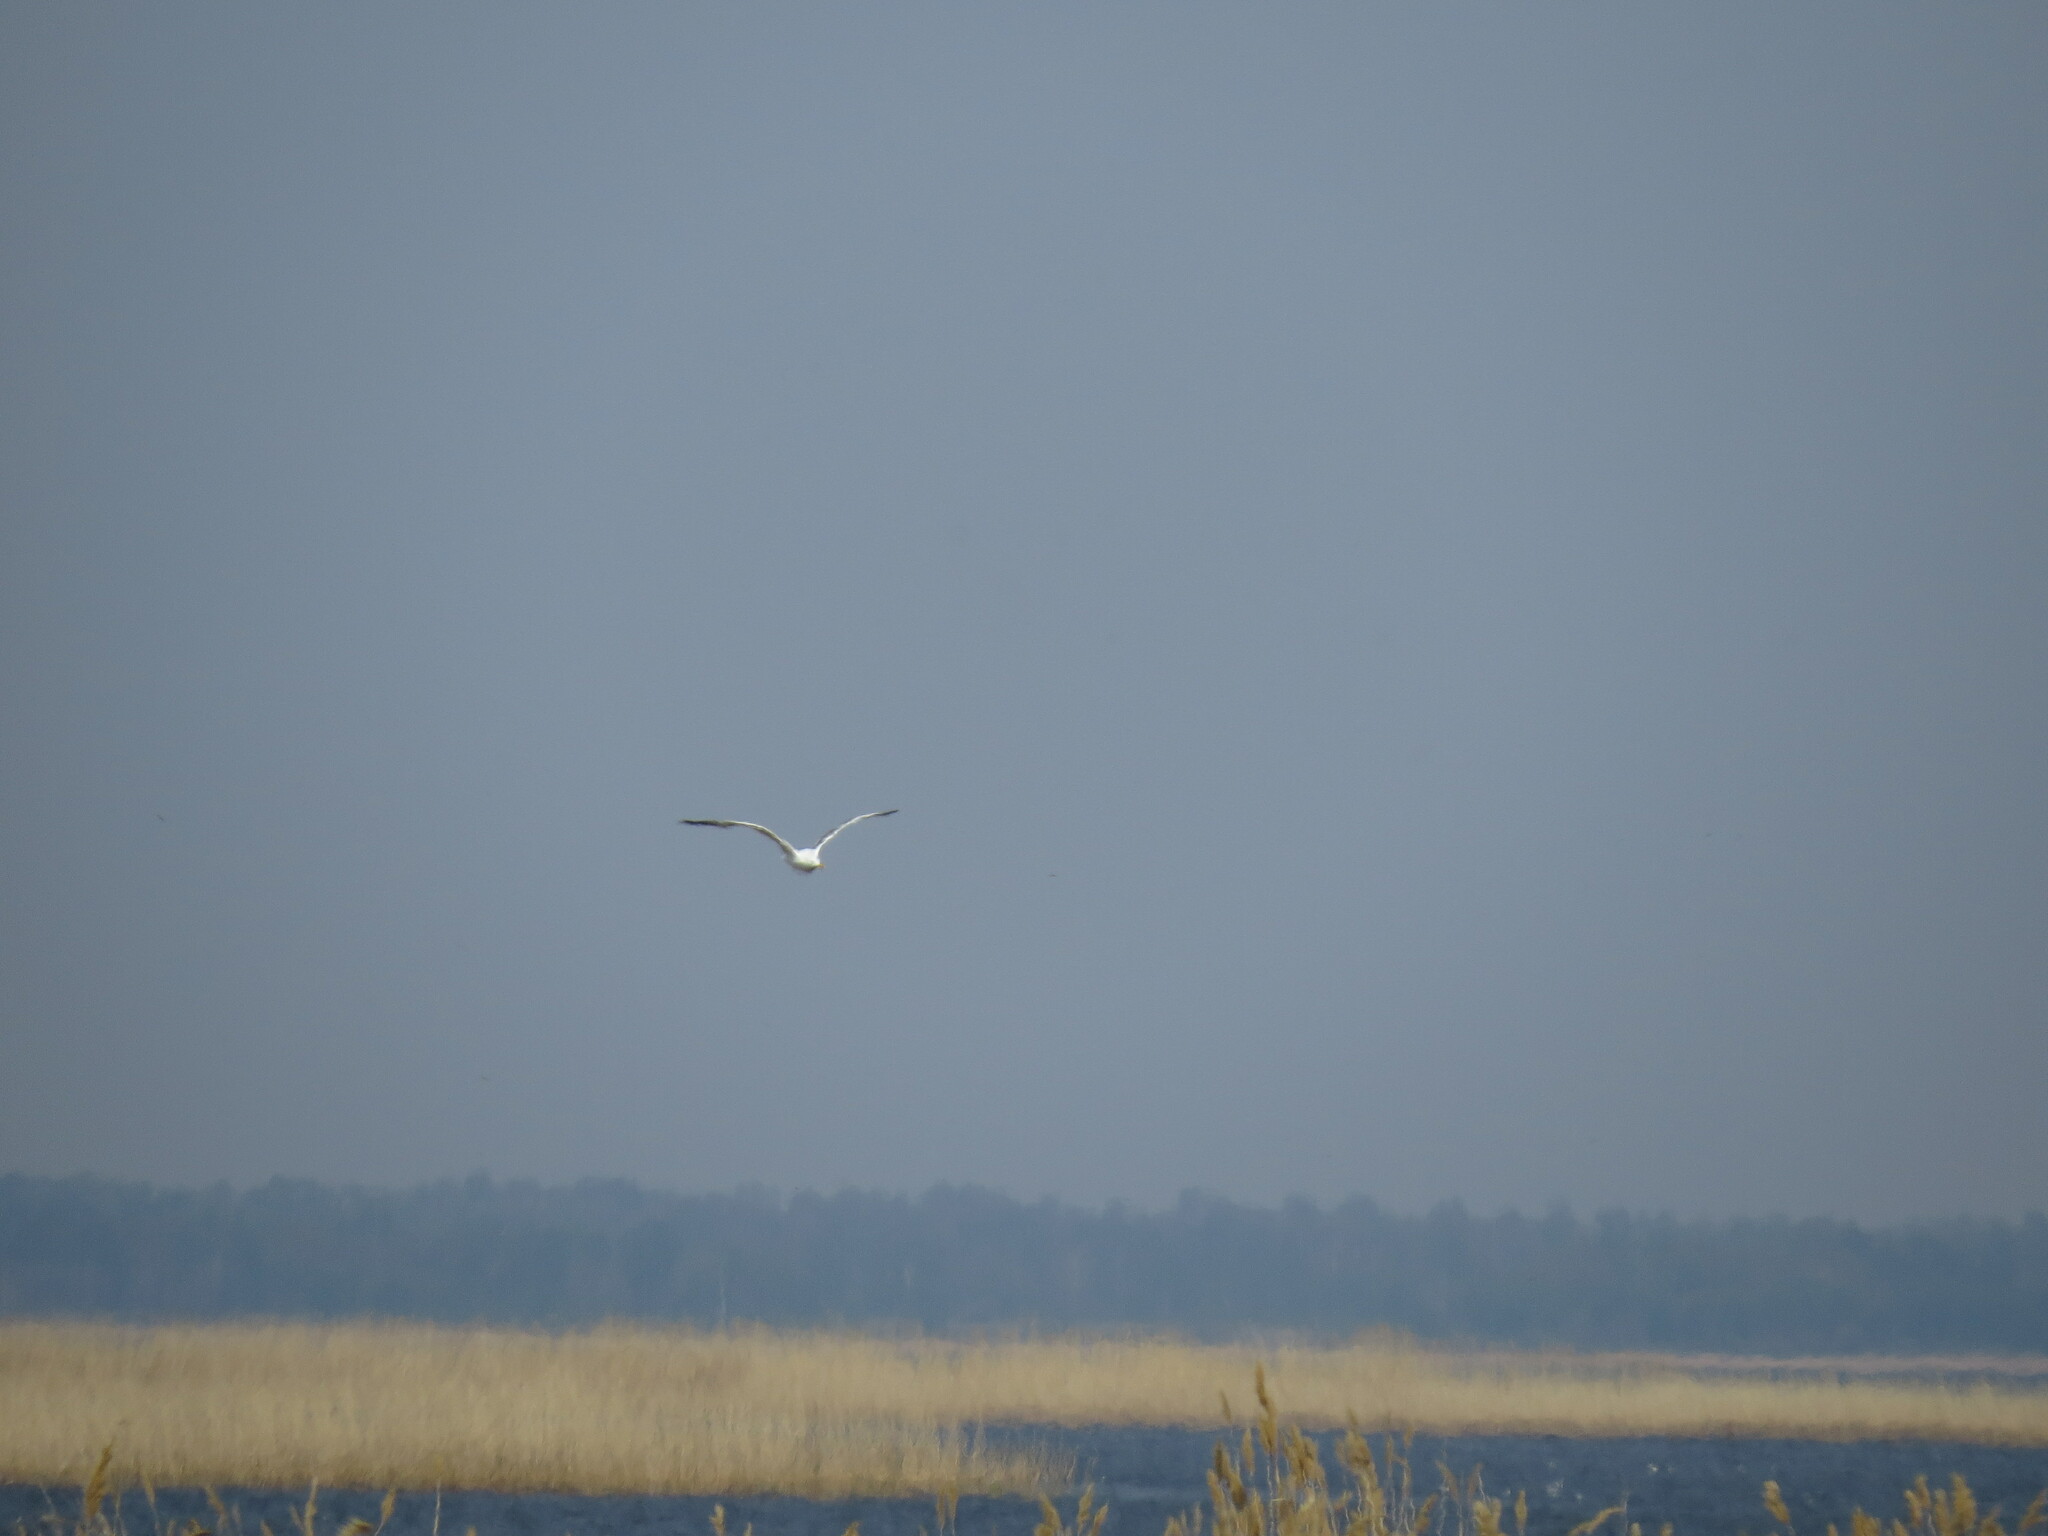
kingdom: Animalia
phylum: Chordata
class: Aves
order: Charadriiformes
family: Laridae
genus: Larus
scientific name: Larus
